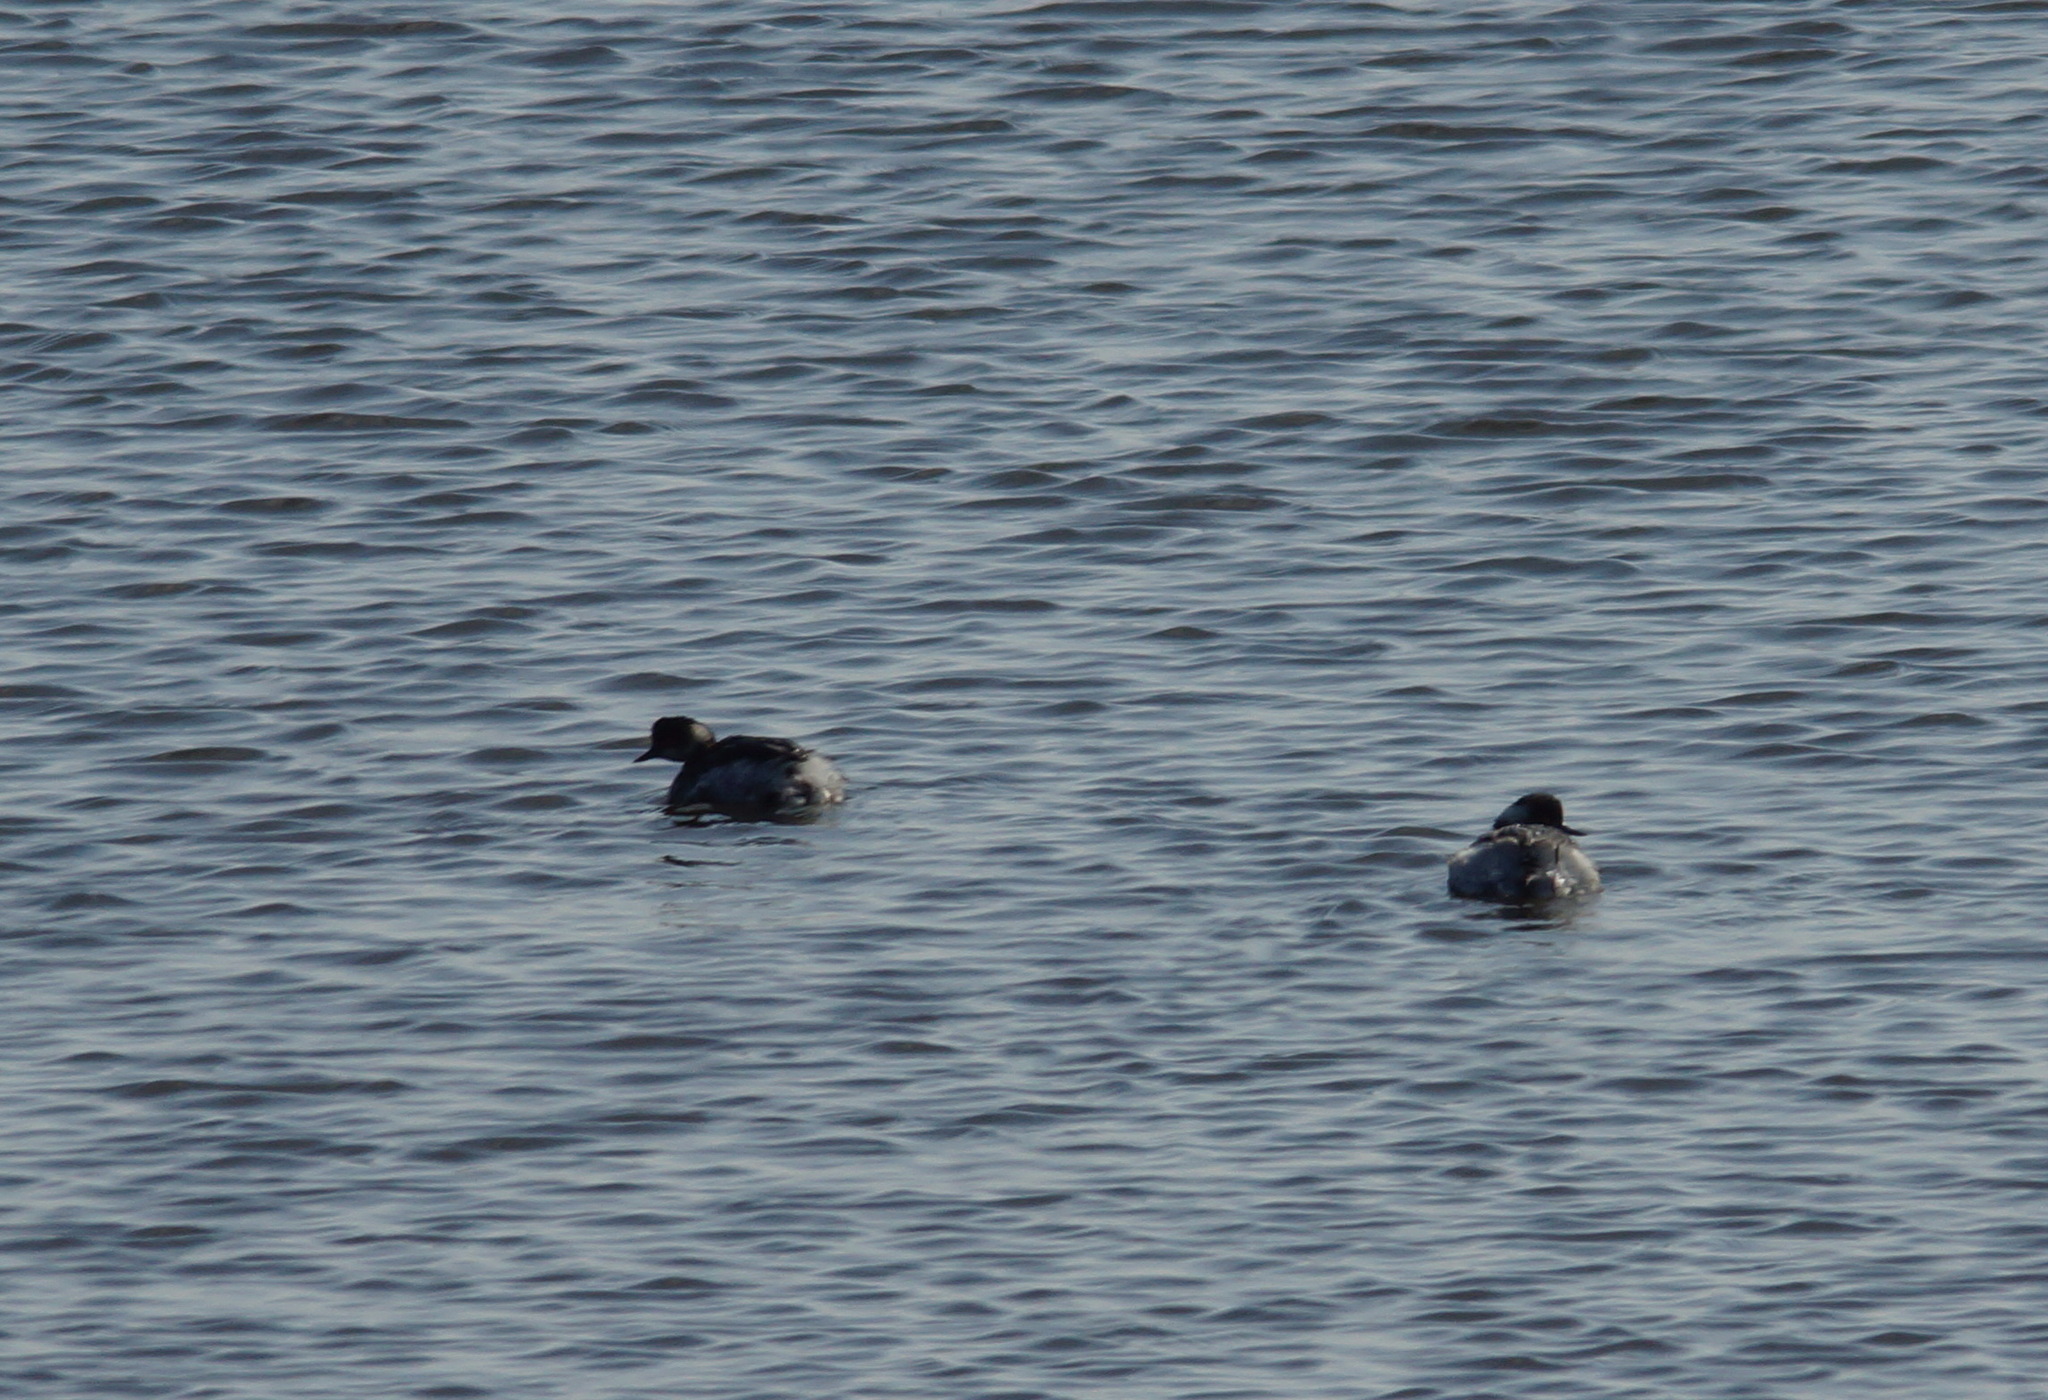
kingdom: Animalia
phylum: Chordata
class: Aves
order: Podicipediformes
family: Podicipedidae
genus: Podiceps
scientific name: Podiceps nigricollis
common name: Black-necked grebe
